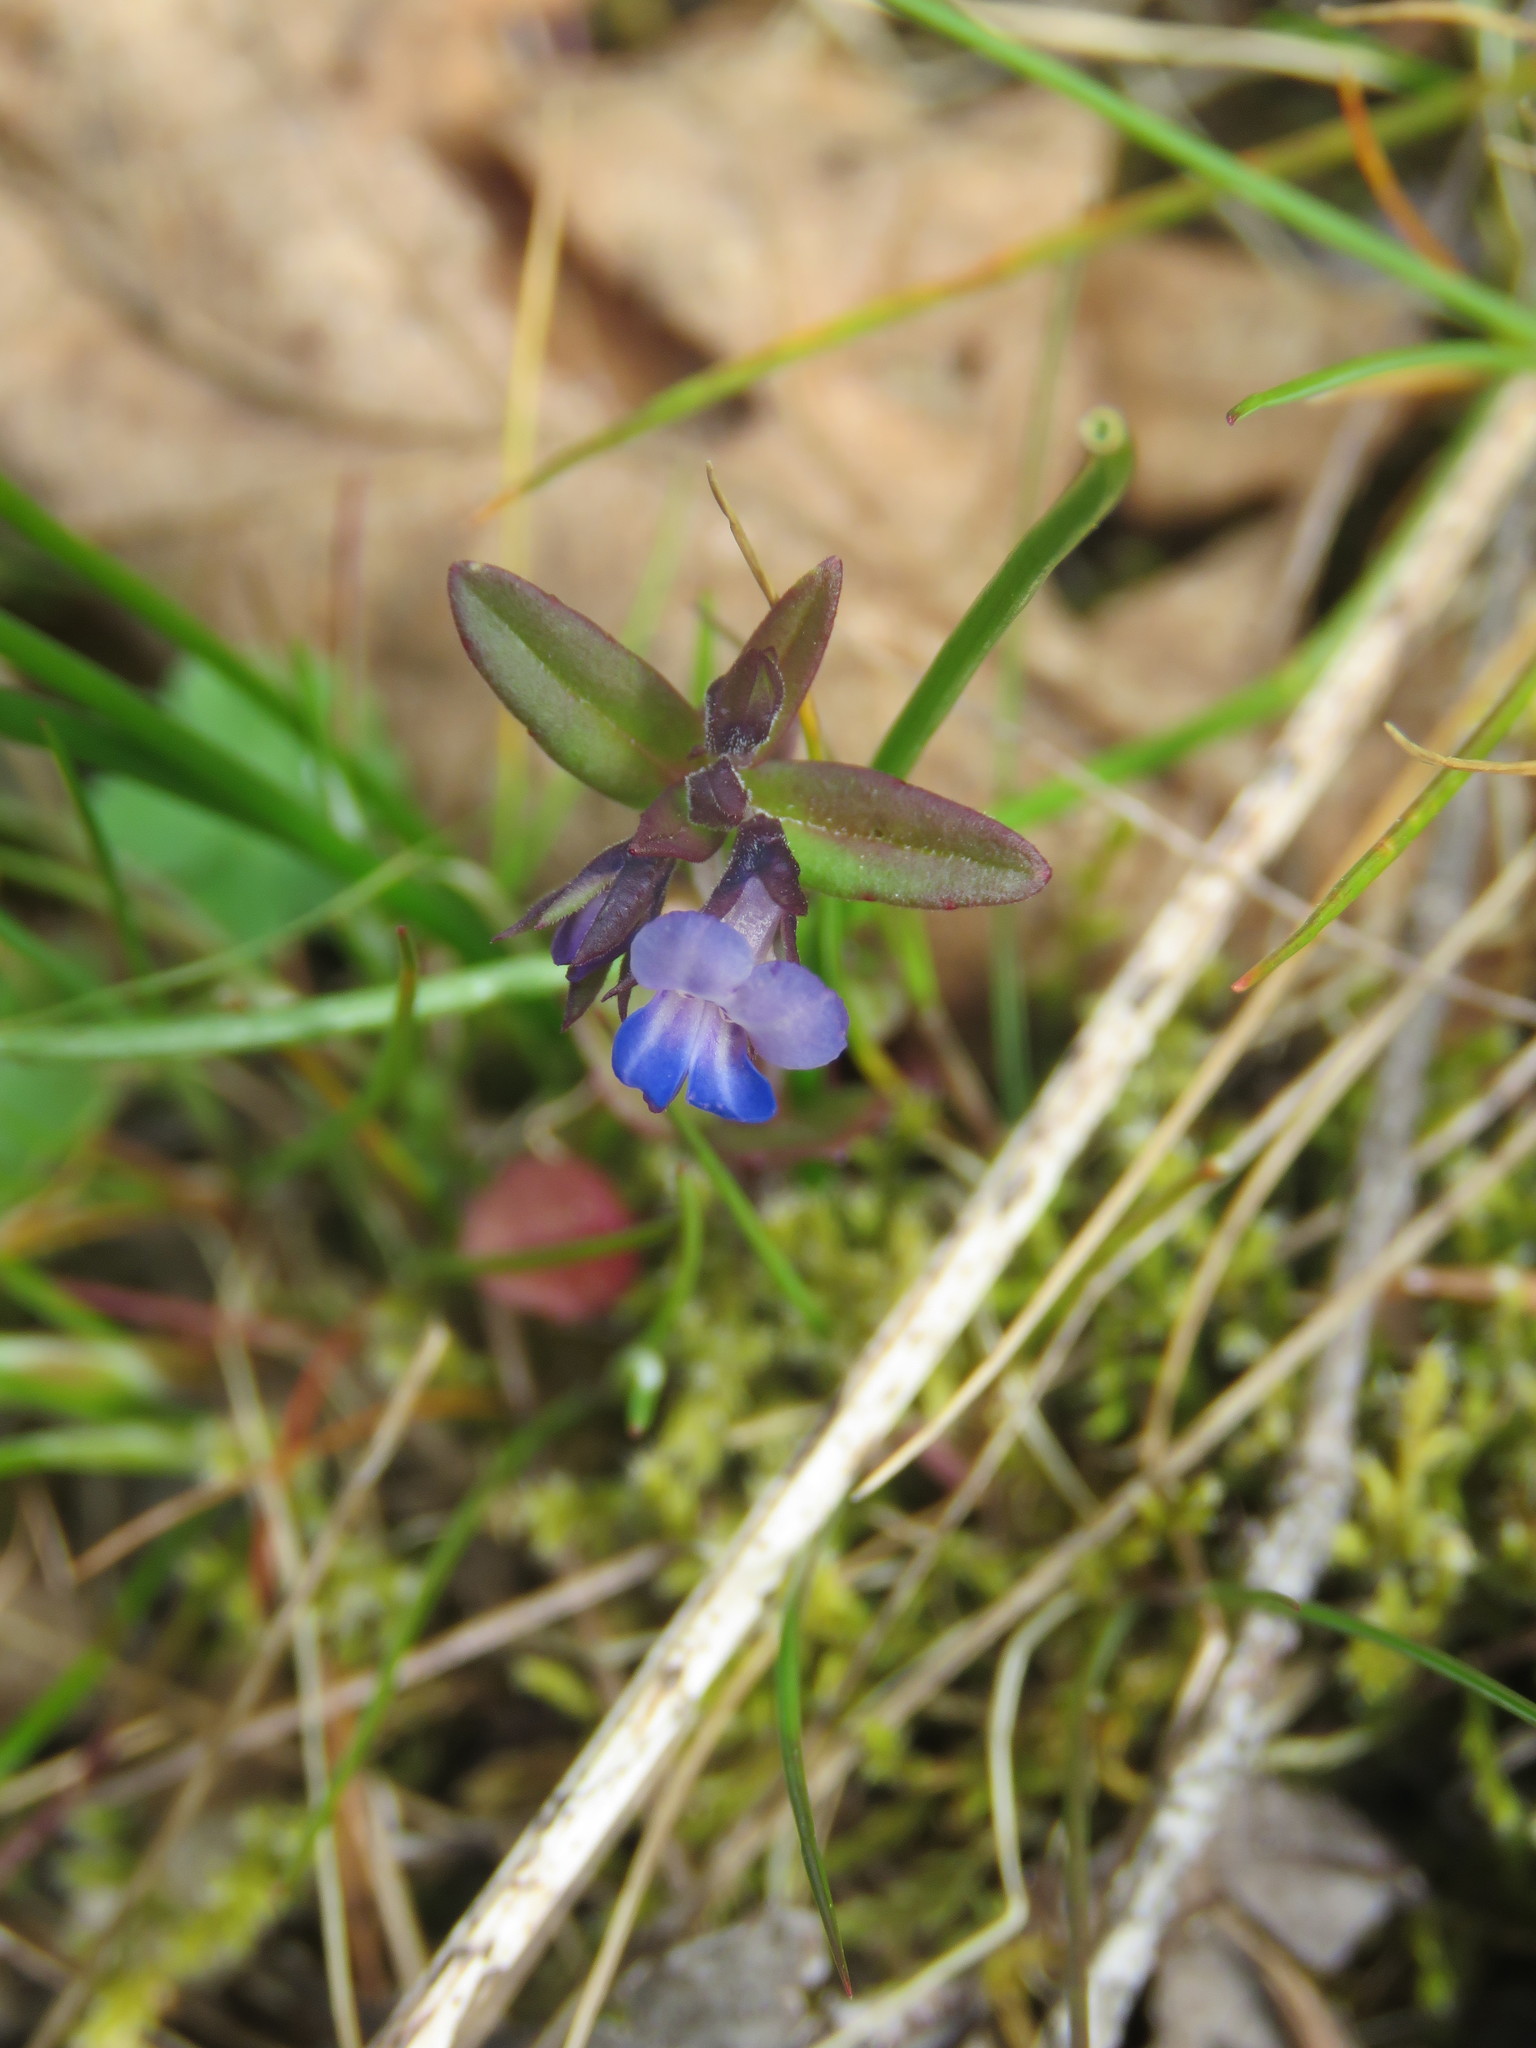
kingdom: Plantae
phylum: Tracheophyta
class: Magnoliopsida
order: Lamiales
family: Plantaginaceae
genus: Collinsia
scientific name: Collinsia parviflora
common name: Blue-lips
